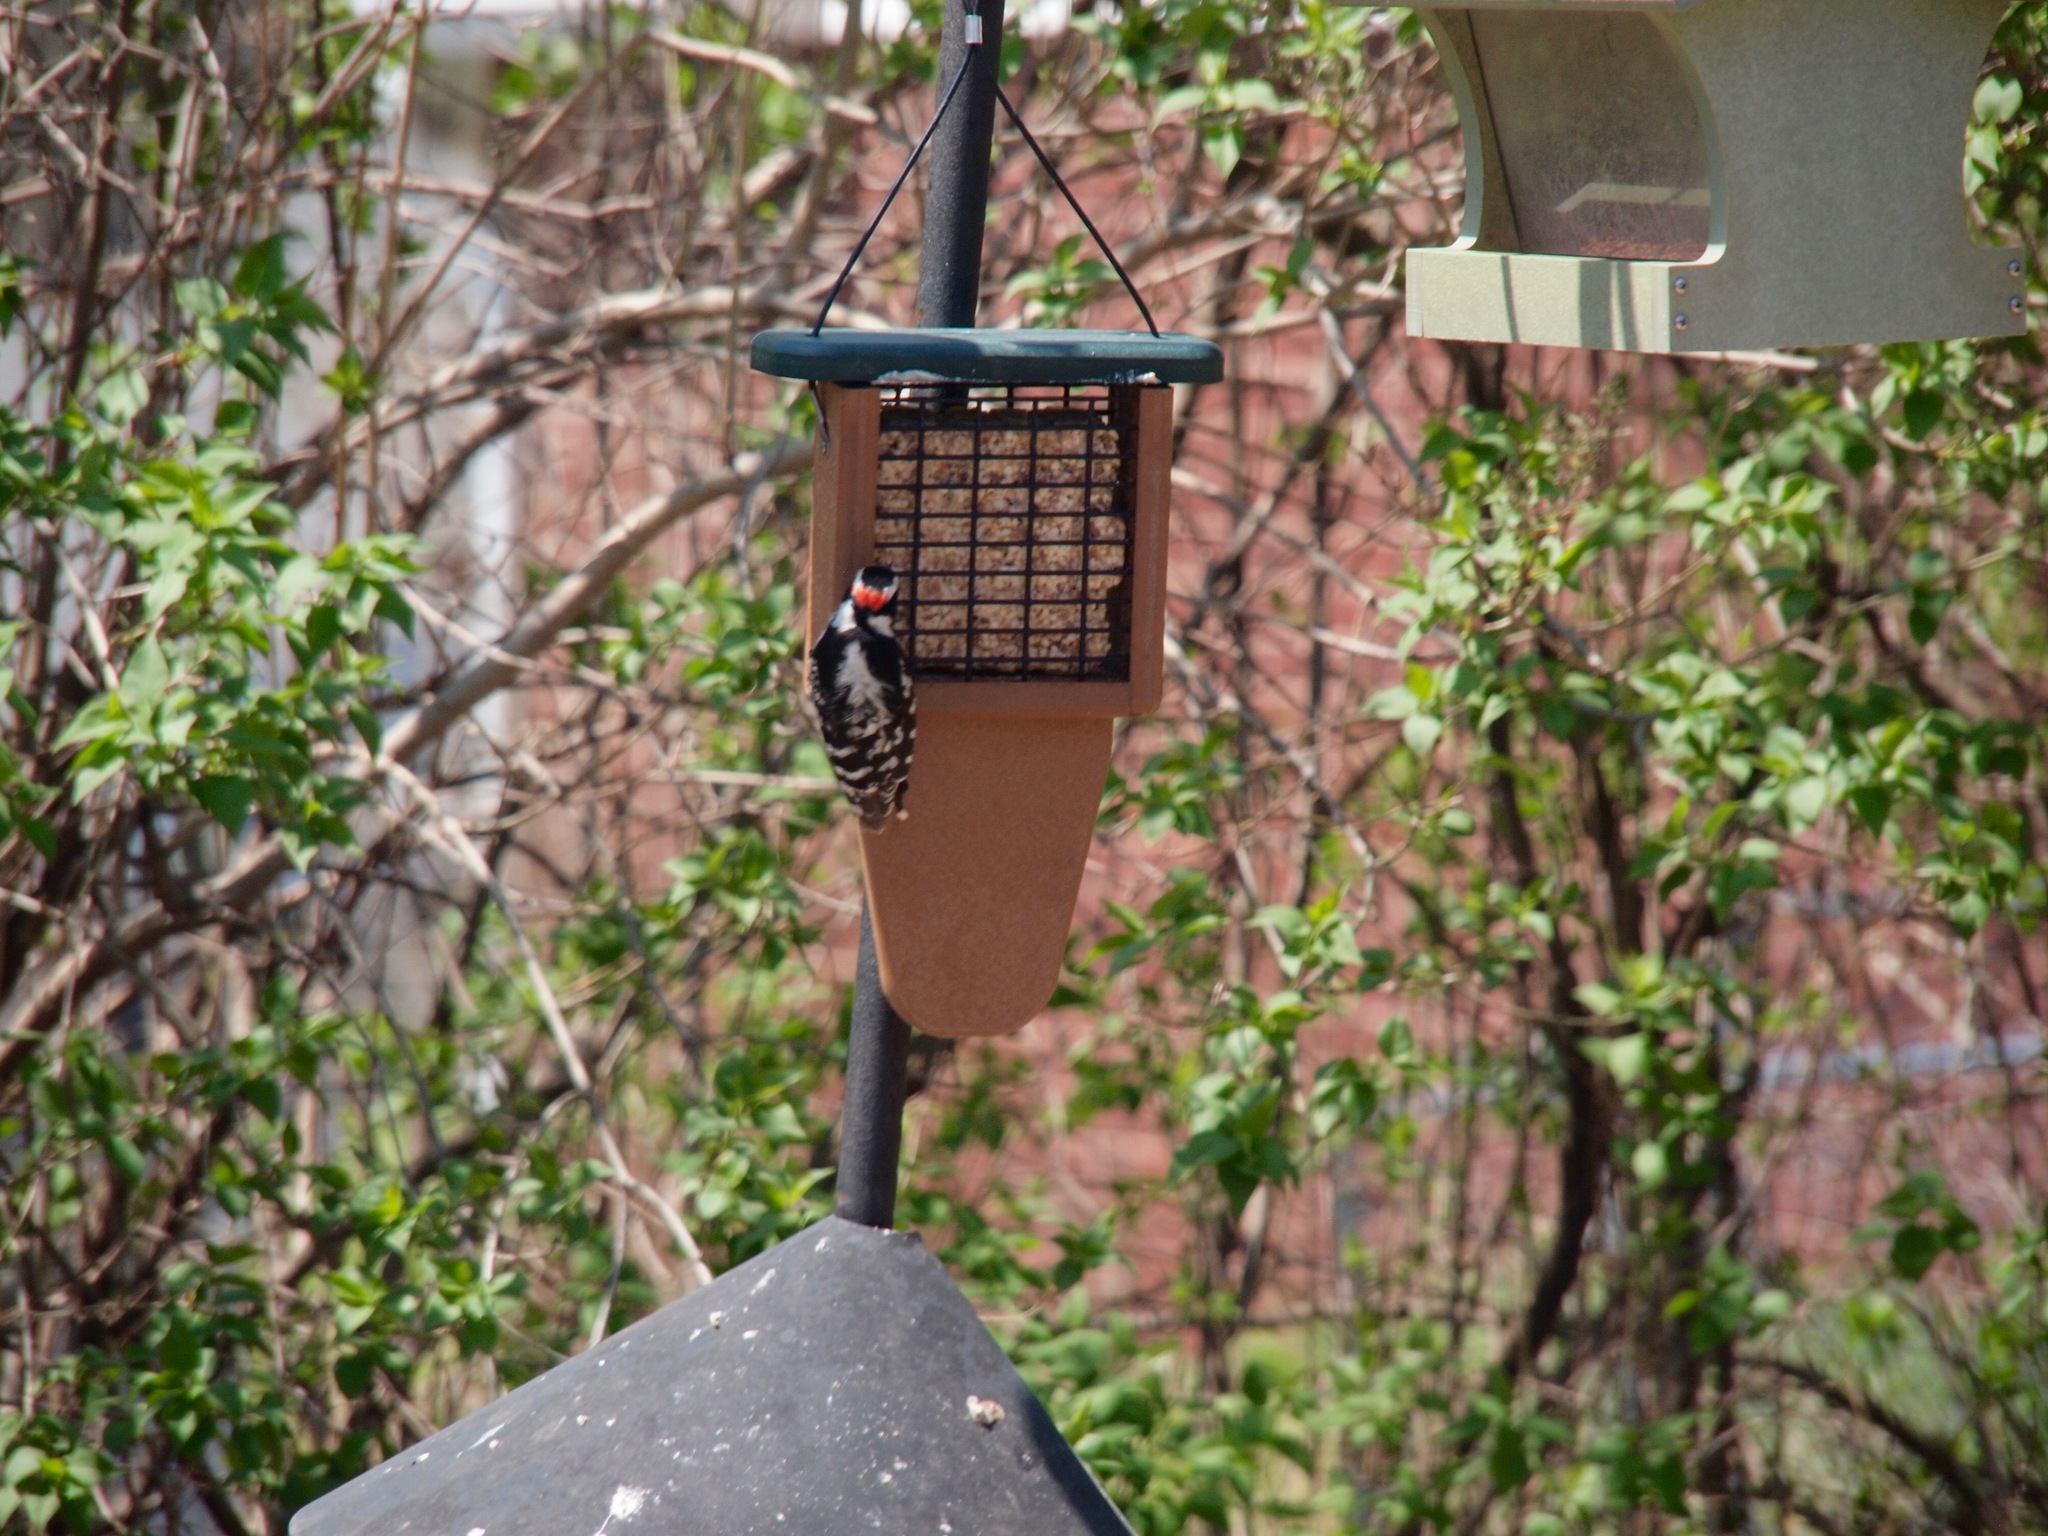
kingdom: Animalia
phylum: Chordata
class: Aves
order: Piciformes
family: Picidae
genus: Dryobates
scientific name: Dryobates pubescens
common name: Downy woodpecker
